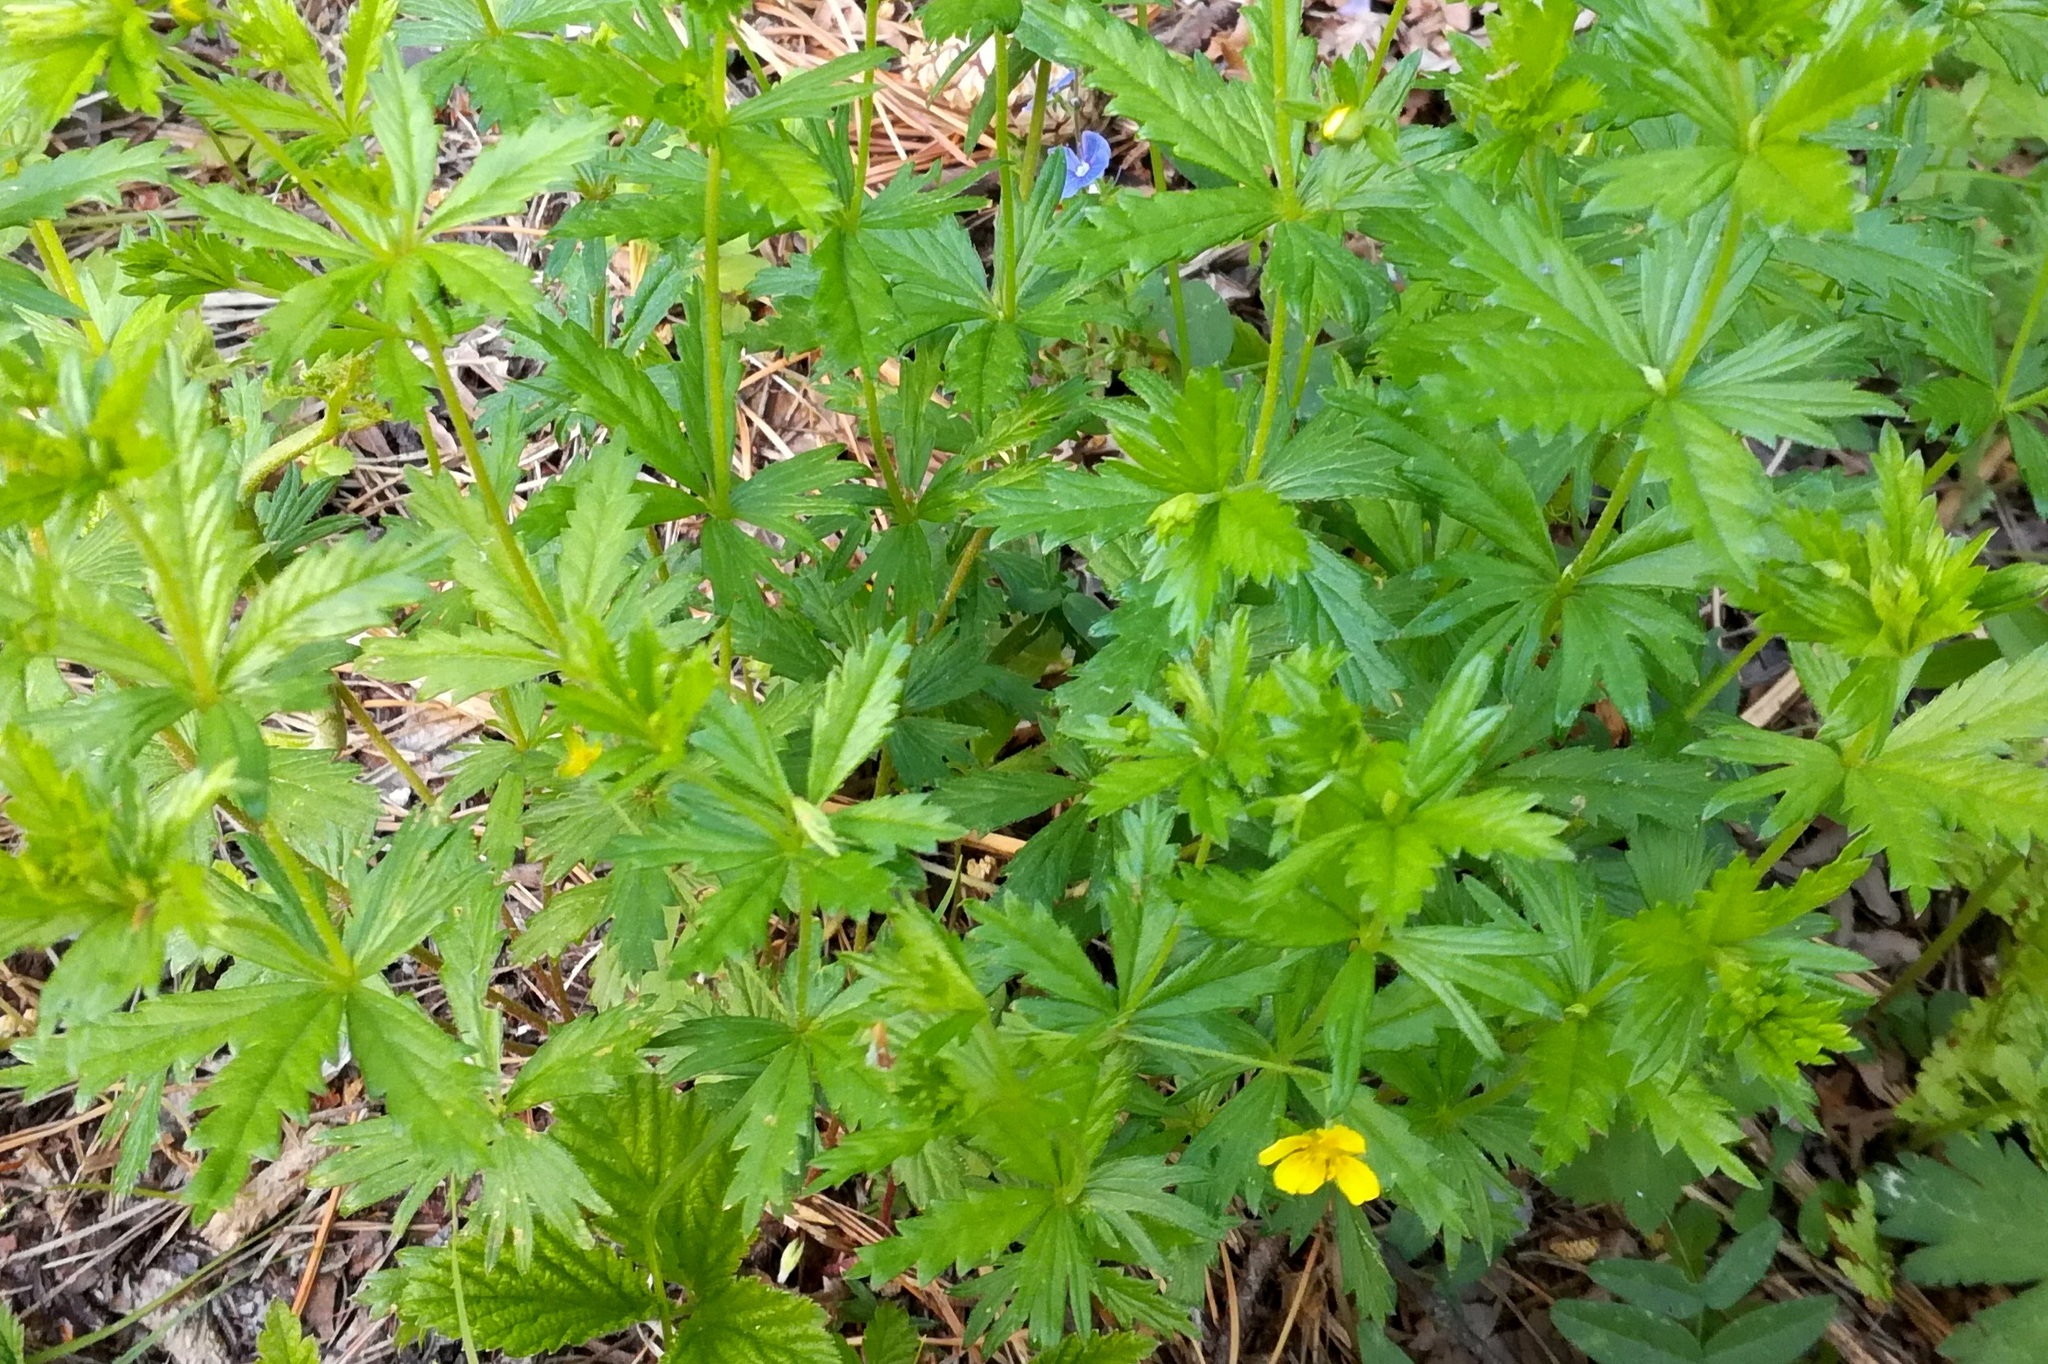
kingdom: Plantae
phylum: Tracheophyta
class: Magnoliopsida
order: Rosales
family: Rosaceae
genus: Potentilla
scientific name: Potentilla erecta
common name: Tormentil
